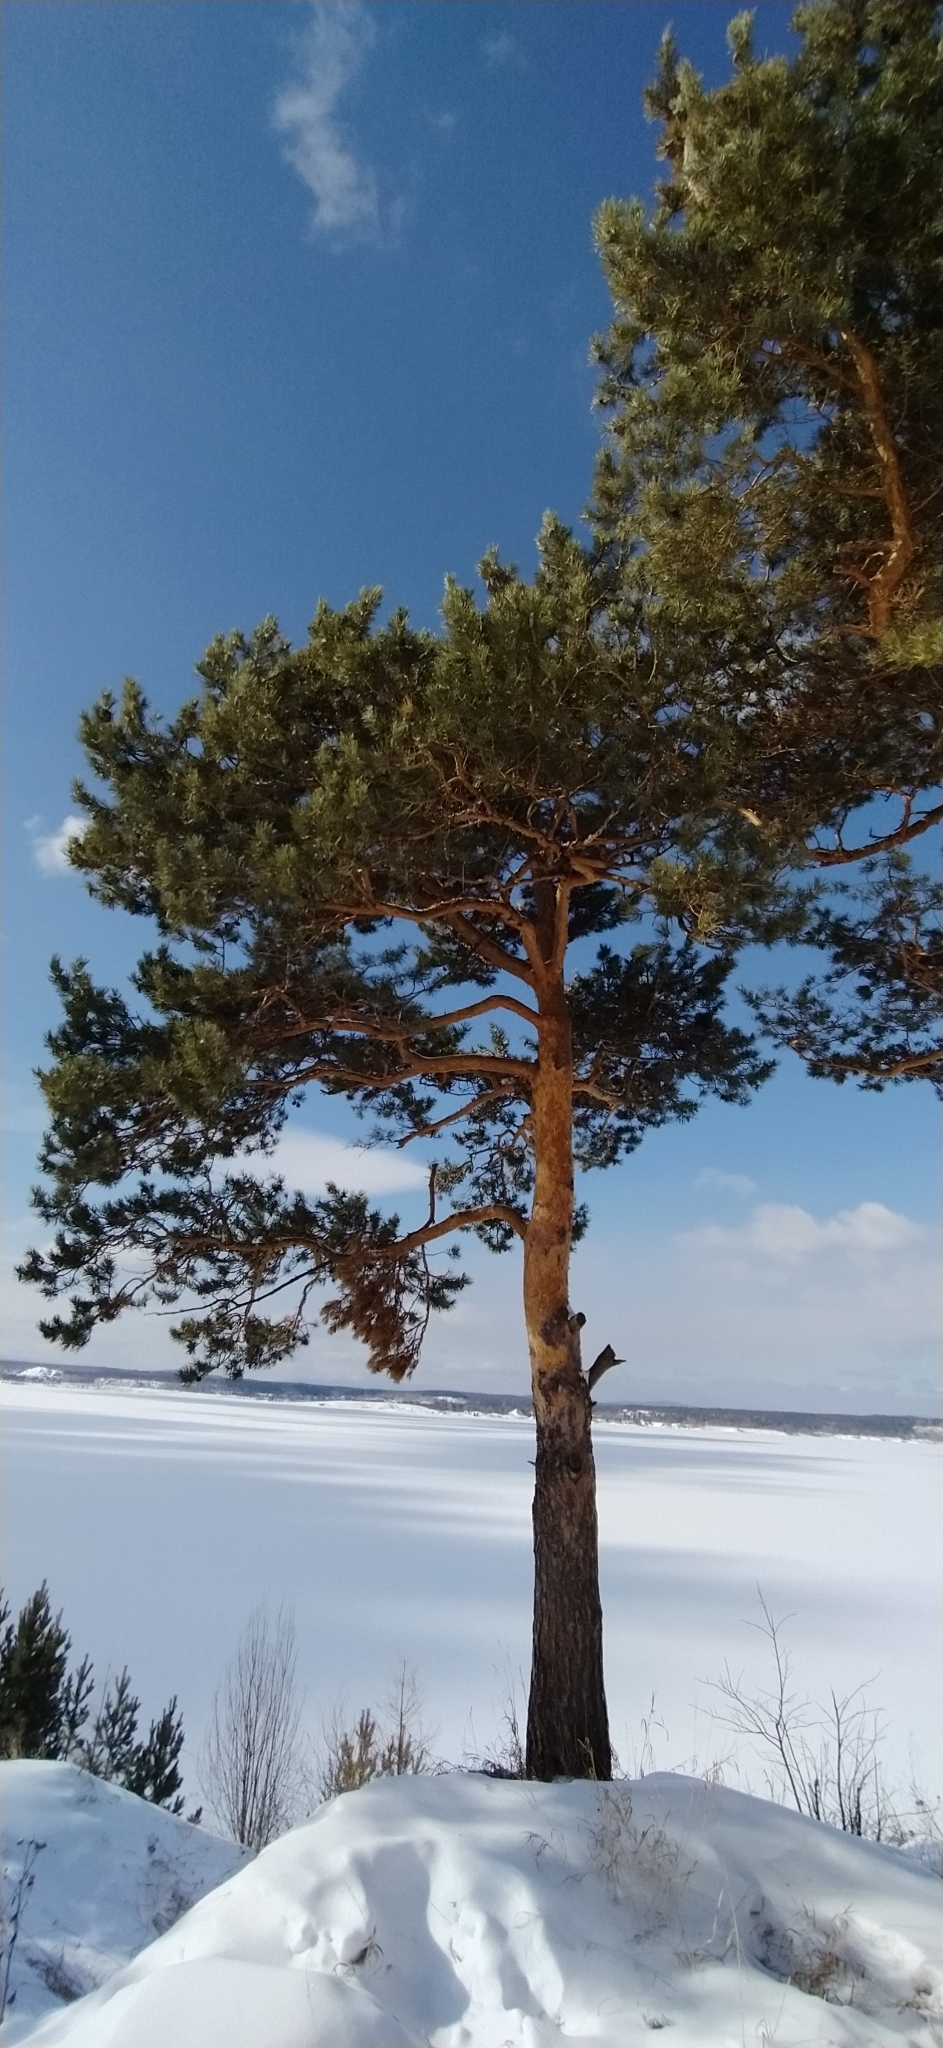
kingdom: Plantae
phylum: Tracheophyta
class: Pinopsida
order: Pinales
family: Pinaceae
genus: Pinus
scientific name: Pinus sylvestris
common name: Scots pine
